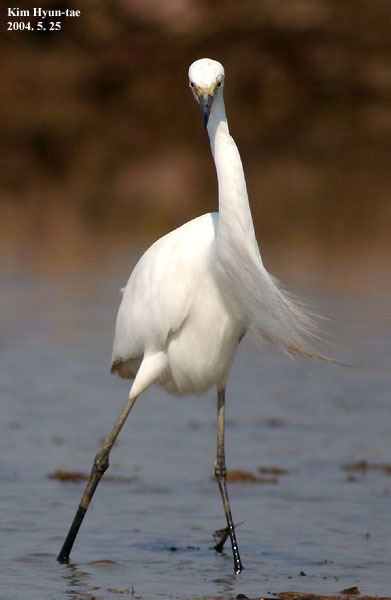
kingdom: Animalia
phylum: Chordata
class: Aves
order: Pelecaniformes
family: Ardeidae
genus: Egretta
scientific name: Egretta intermedia
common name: Intermediate egret
